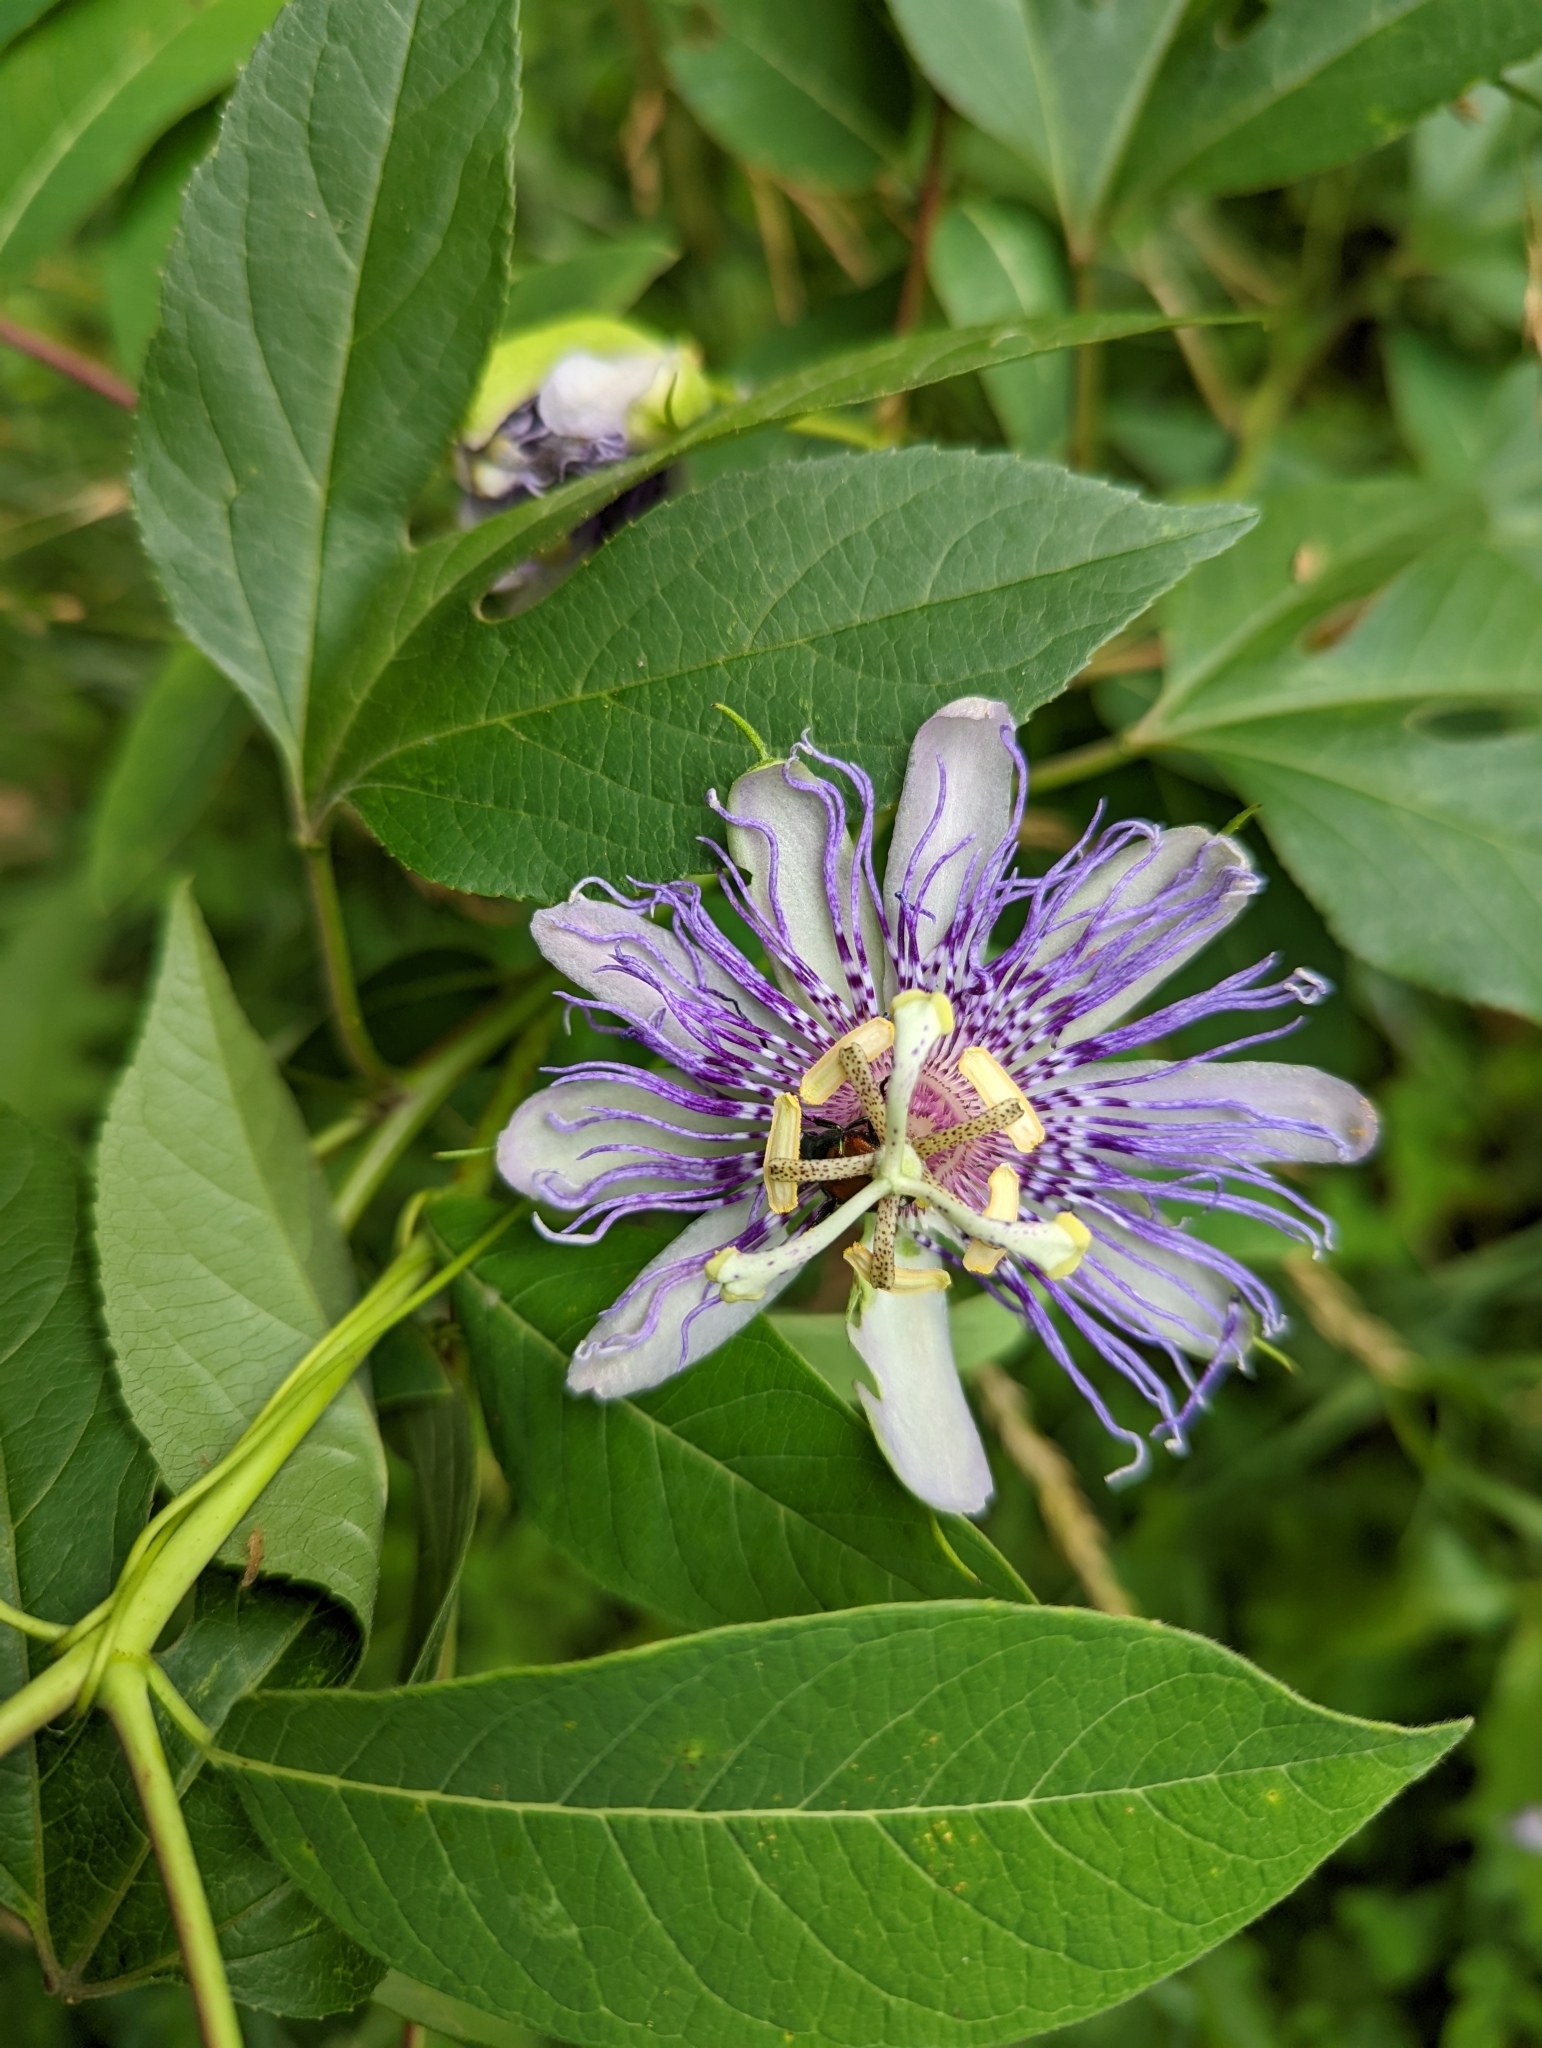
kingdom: Plantae
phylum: Tracheophyta
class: Magnoliopsida
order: Malpighiales
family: Passifloraceae
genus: Passiflora
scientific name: Passiflora incarnata
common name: Apricot-vine
